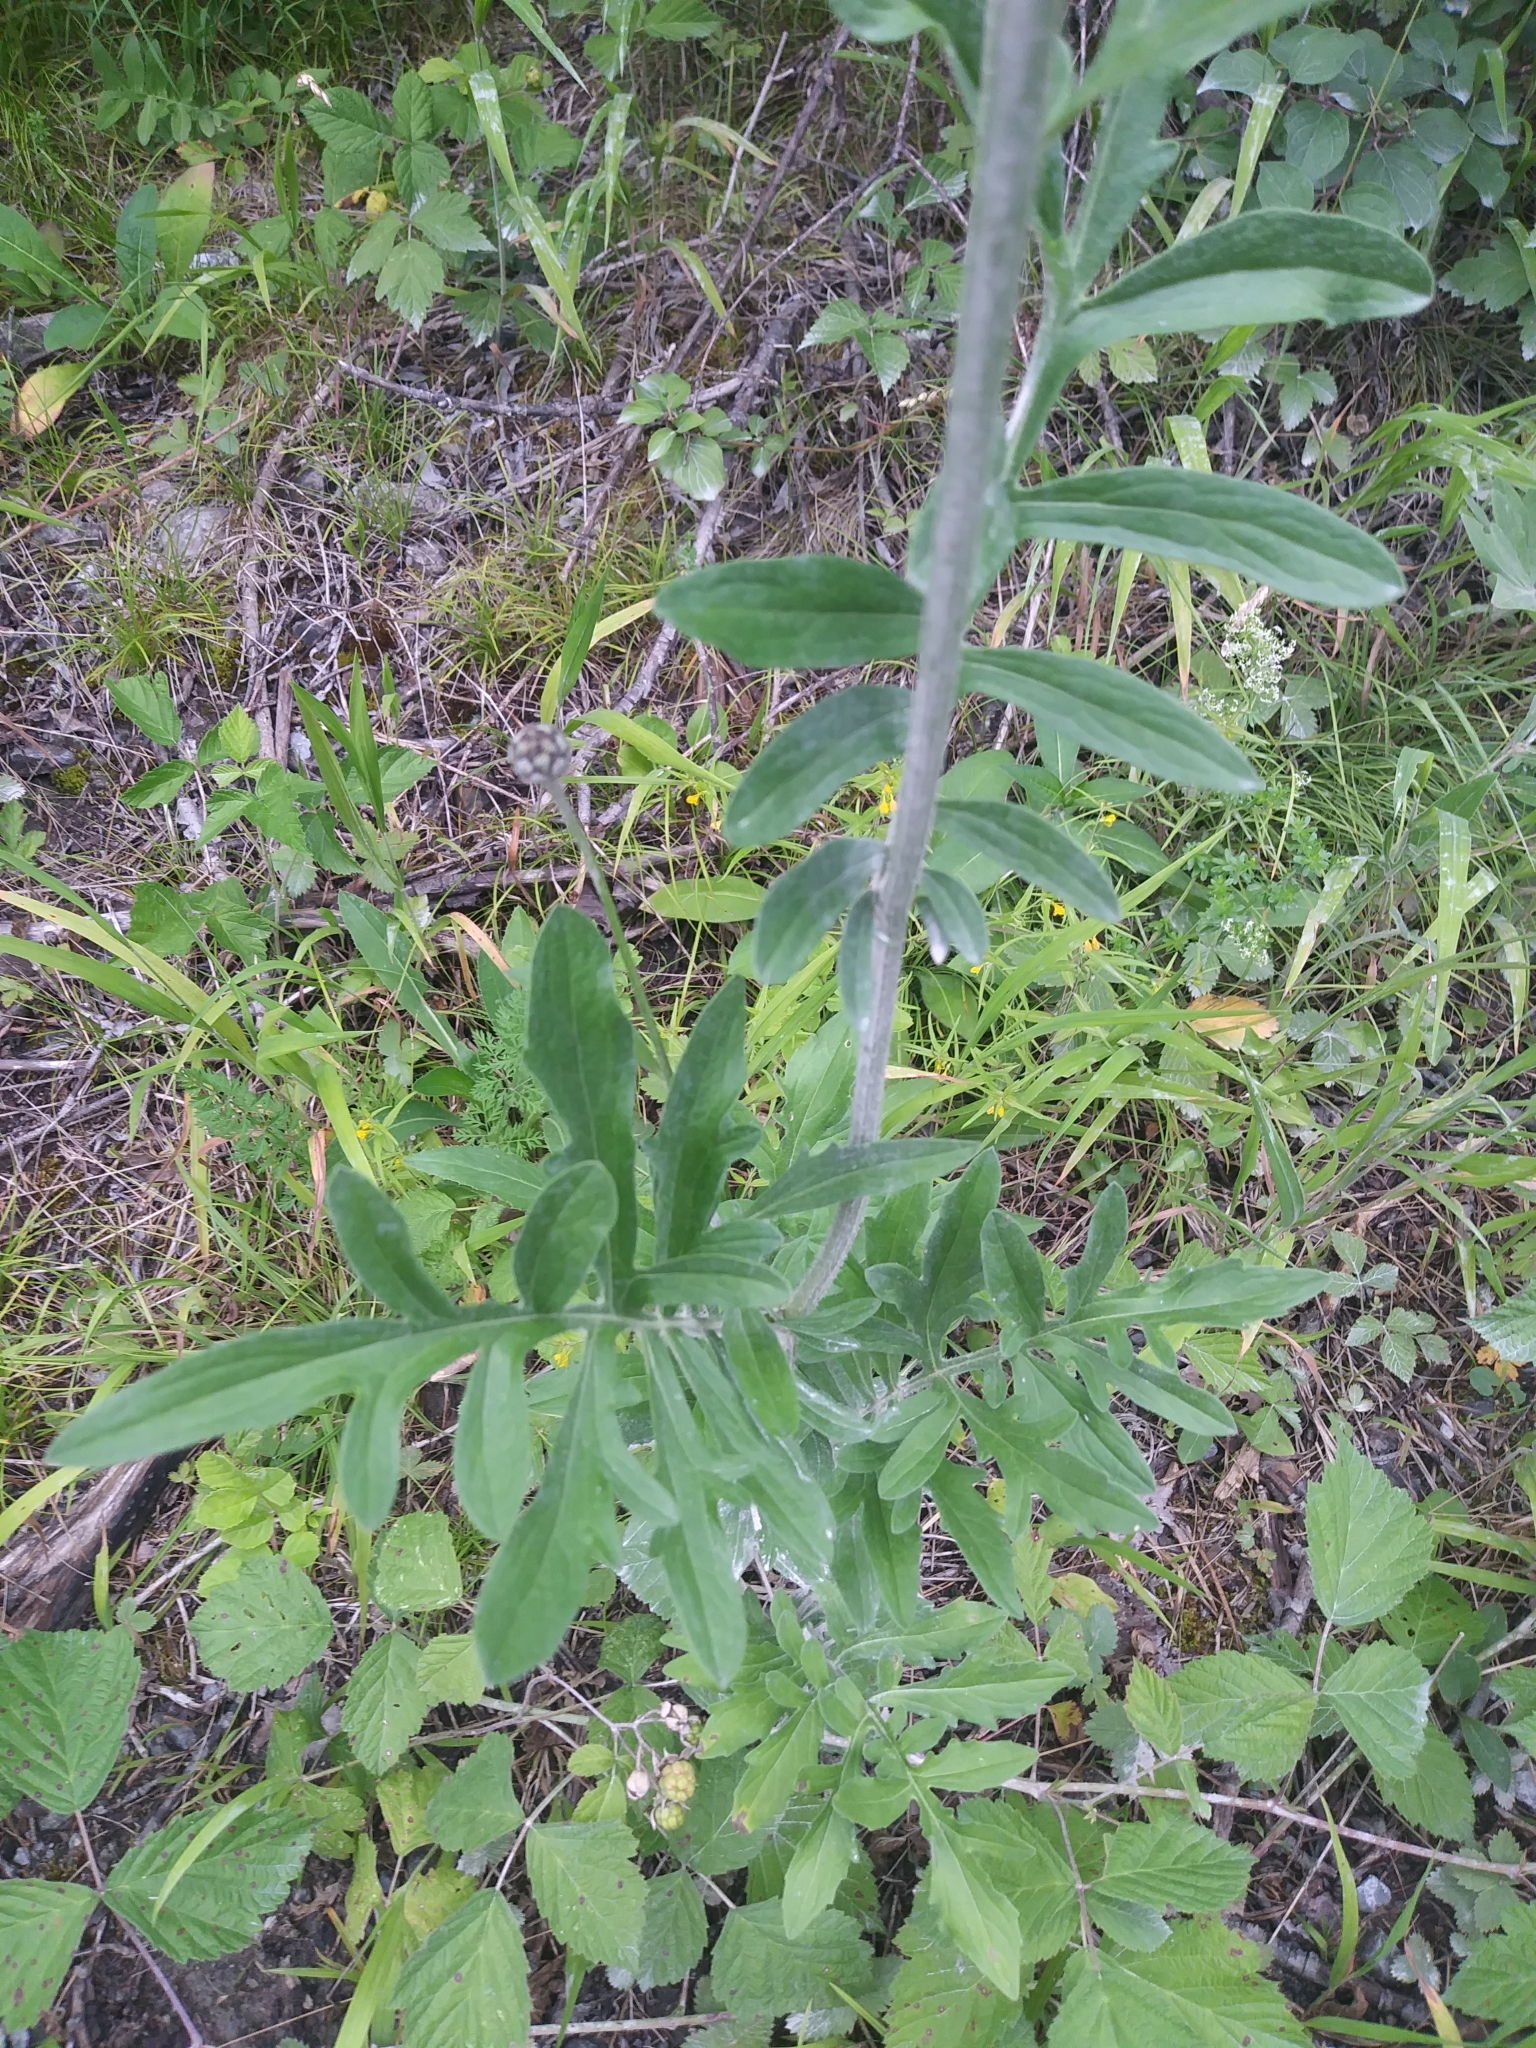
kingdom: Plantae
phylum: Tracheophyta
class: Magnoliopsida
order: Asterales
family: Asteraceae
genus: Centaurea
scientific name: Centaurea scabiosa
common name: Greater knapweed
